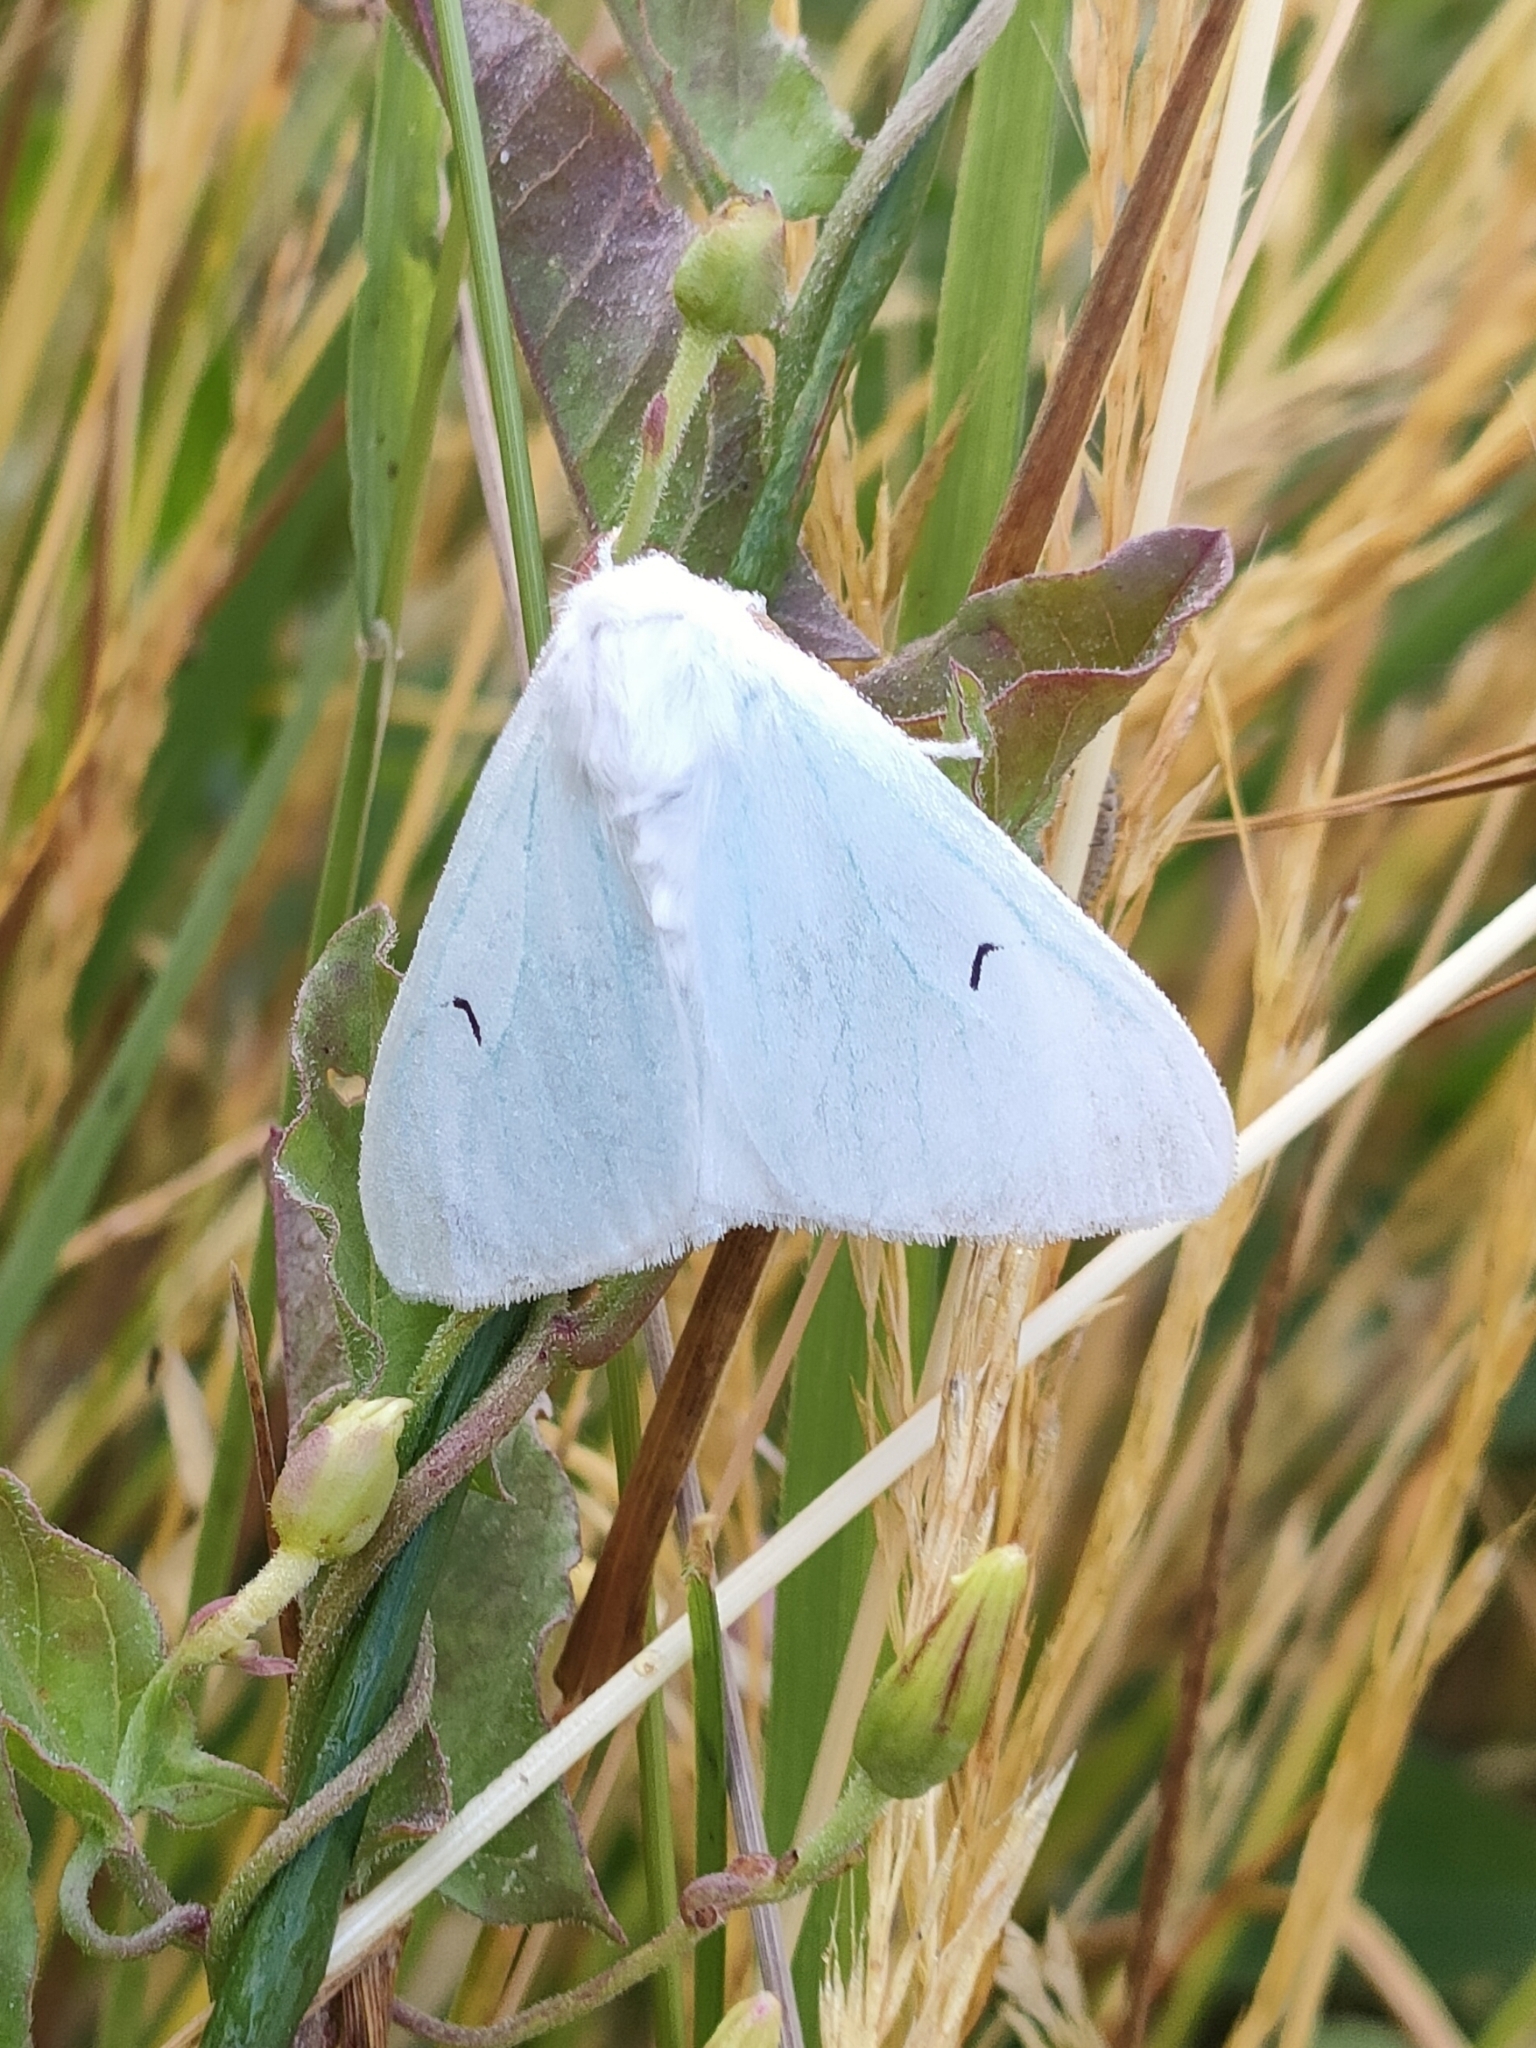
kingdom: Animalia
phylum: Arthropoda
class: Insecta
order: Lepidoptera
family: Erebidae
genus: Arctornis
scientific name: Arctornis l-nigrum
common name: Black v moth
